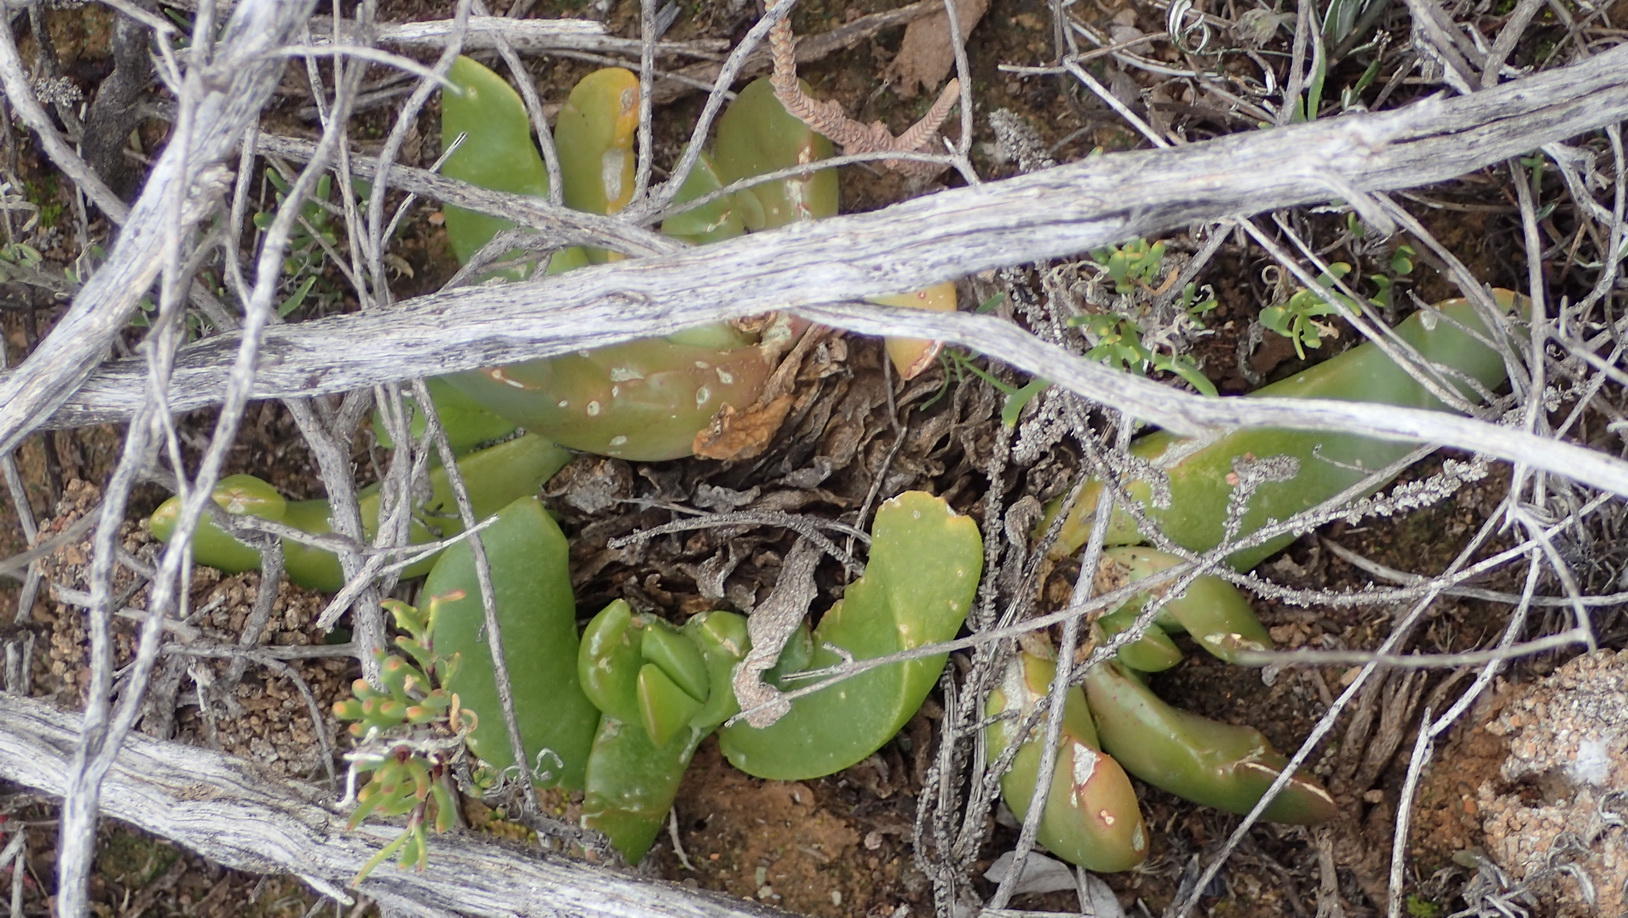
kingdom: Plantae
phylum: Tracheophyta
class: Magnoliopsida
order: Caryophyllales
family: Aizoaceae
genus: Glottiphyllum
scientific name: Glottiphyllum depressum
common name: Fig-marigold
